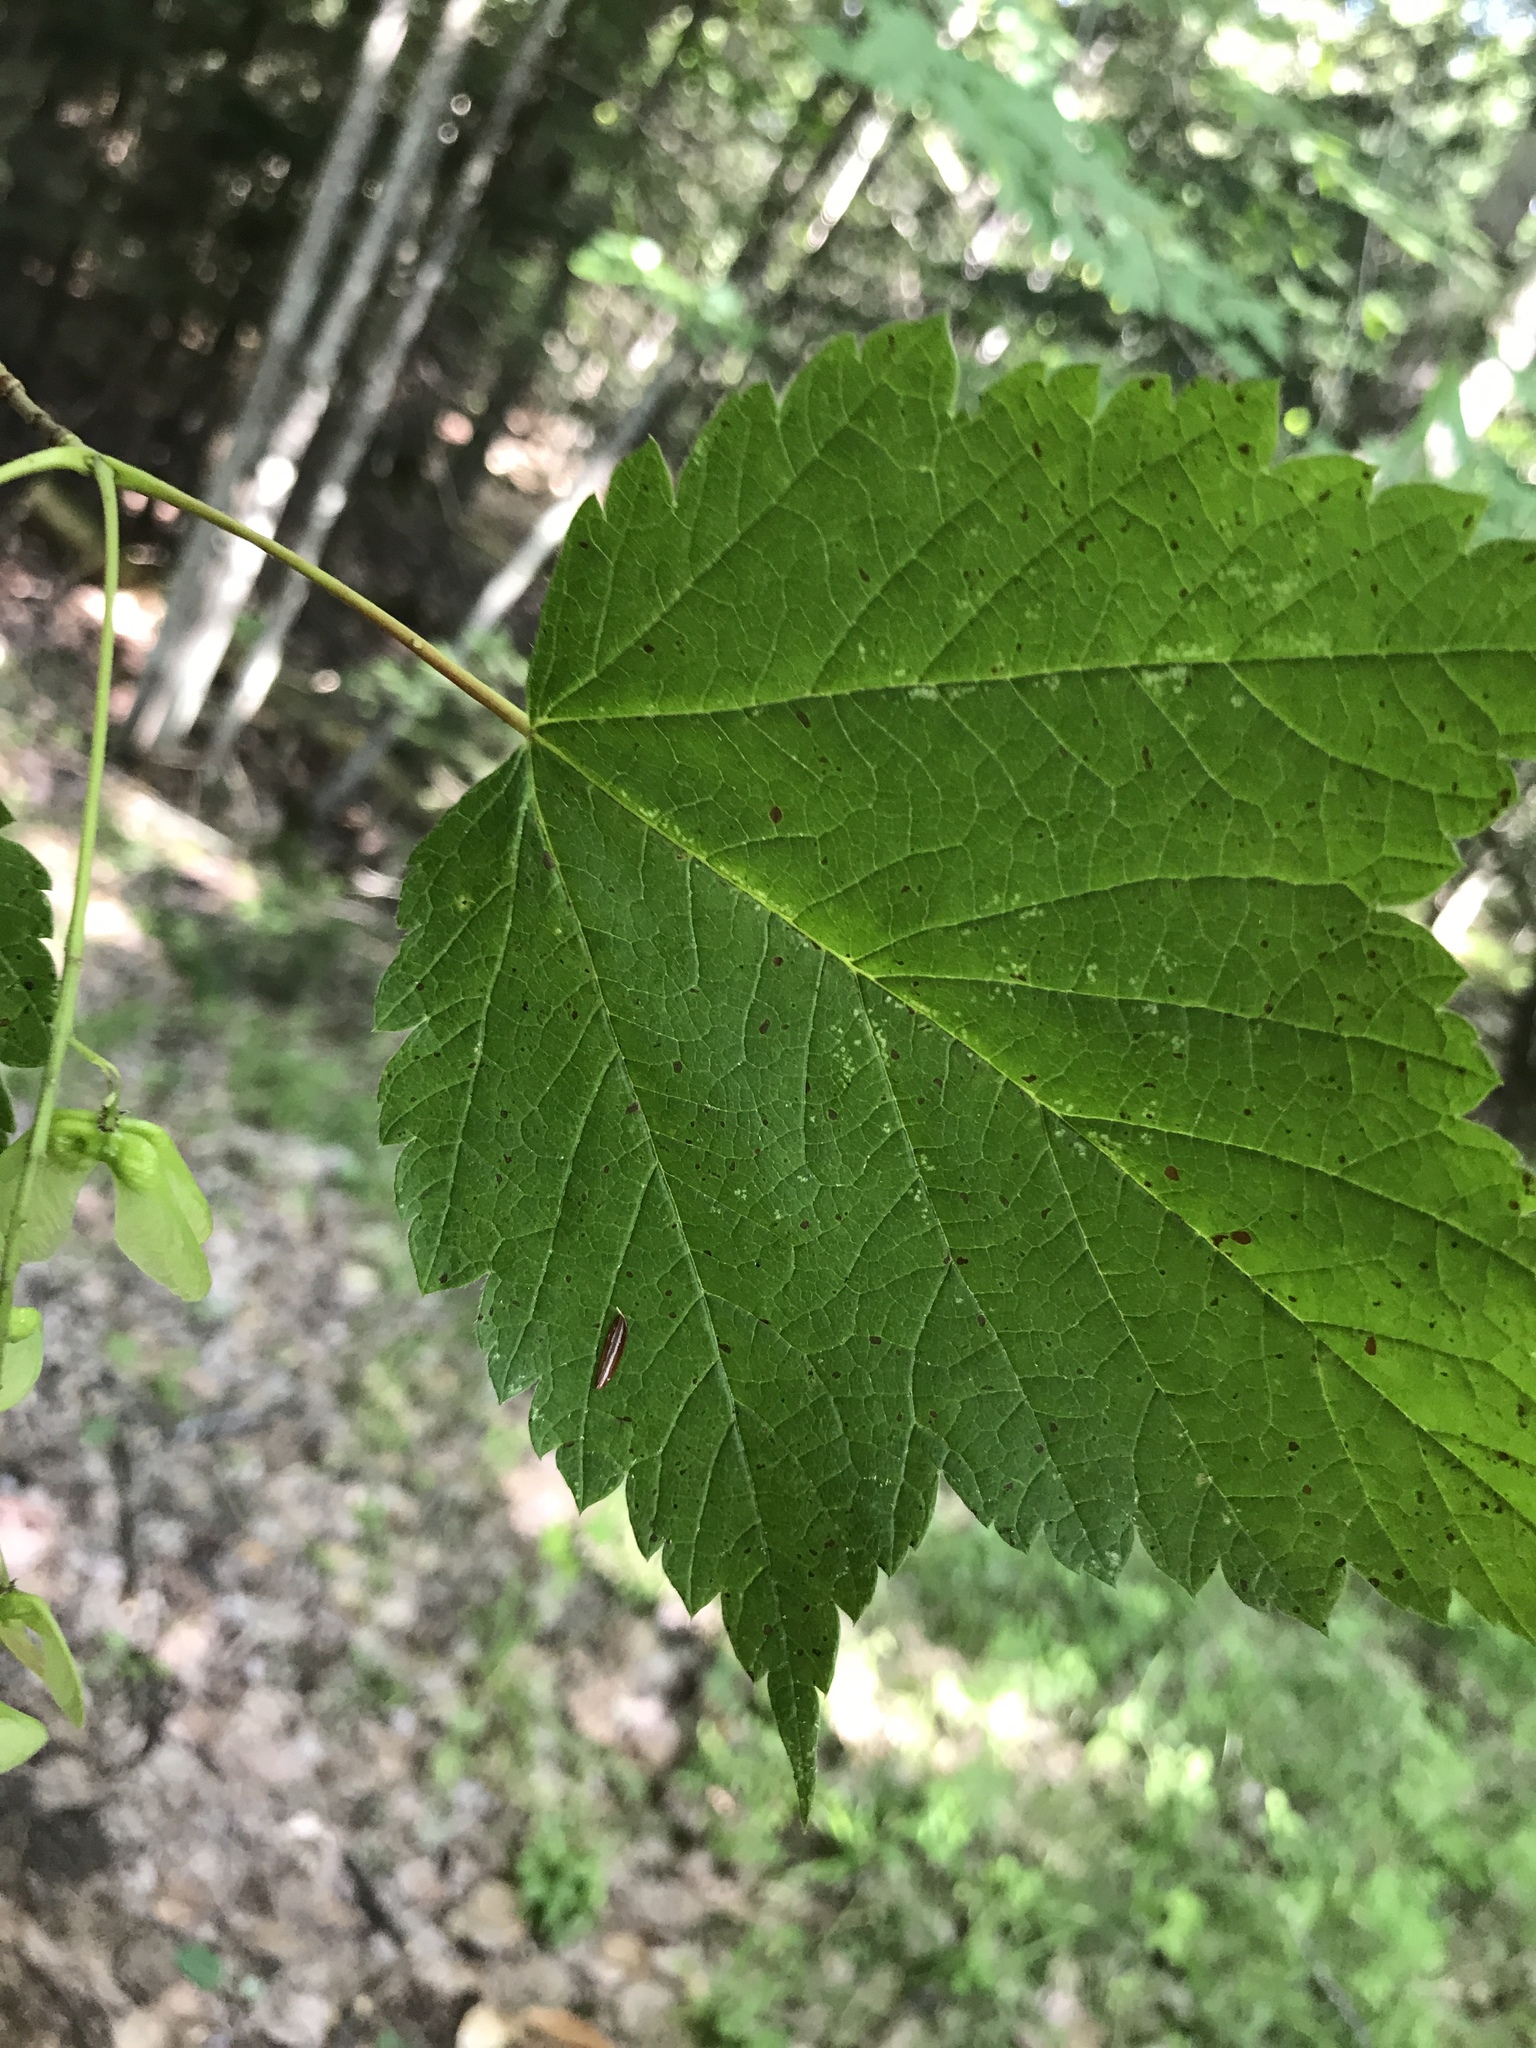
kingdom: Plantae
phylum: Tracheophyta
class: Magnoliopsida
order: Sapindales
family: Sapindaceae
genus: Acer
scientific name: Acer spicatum
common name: Mountain maple
